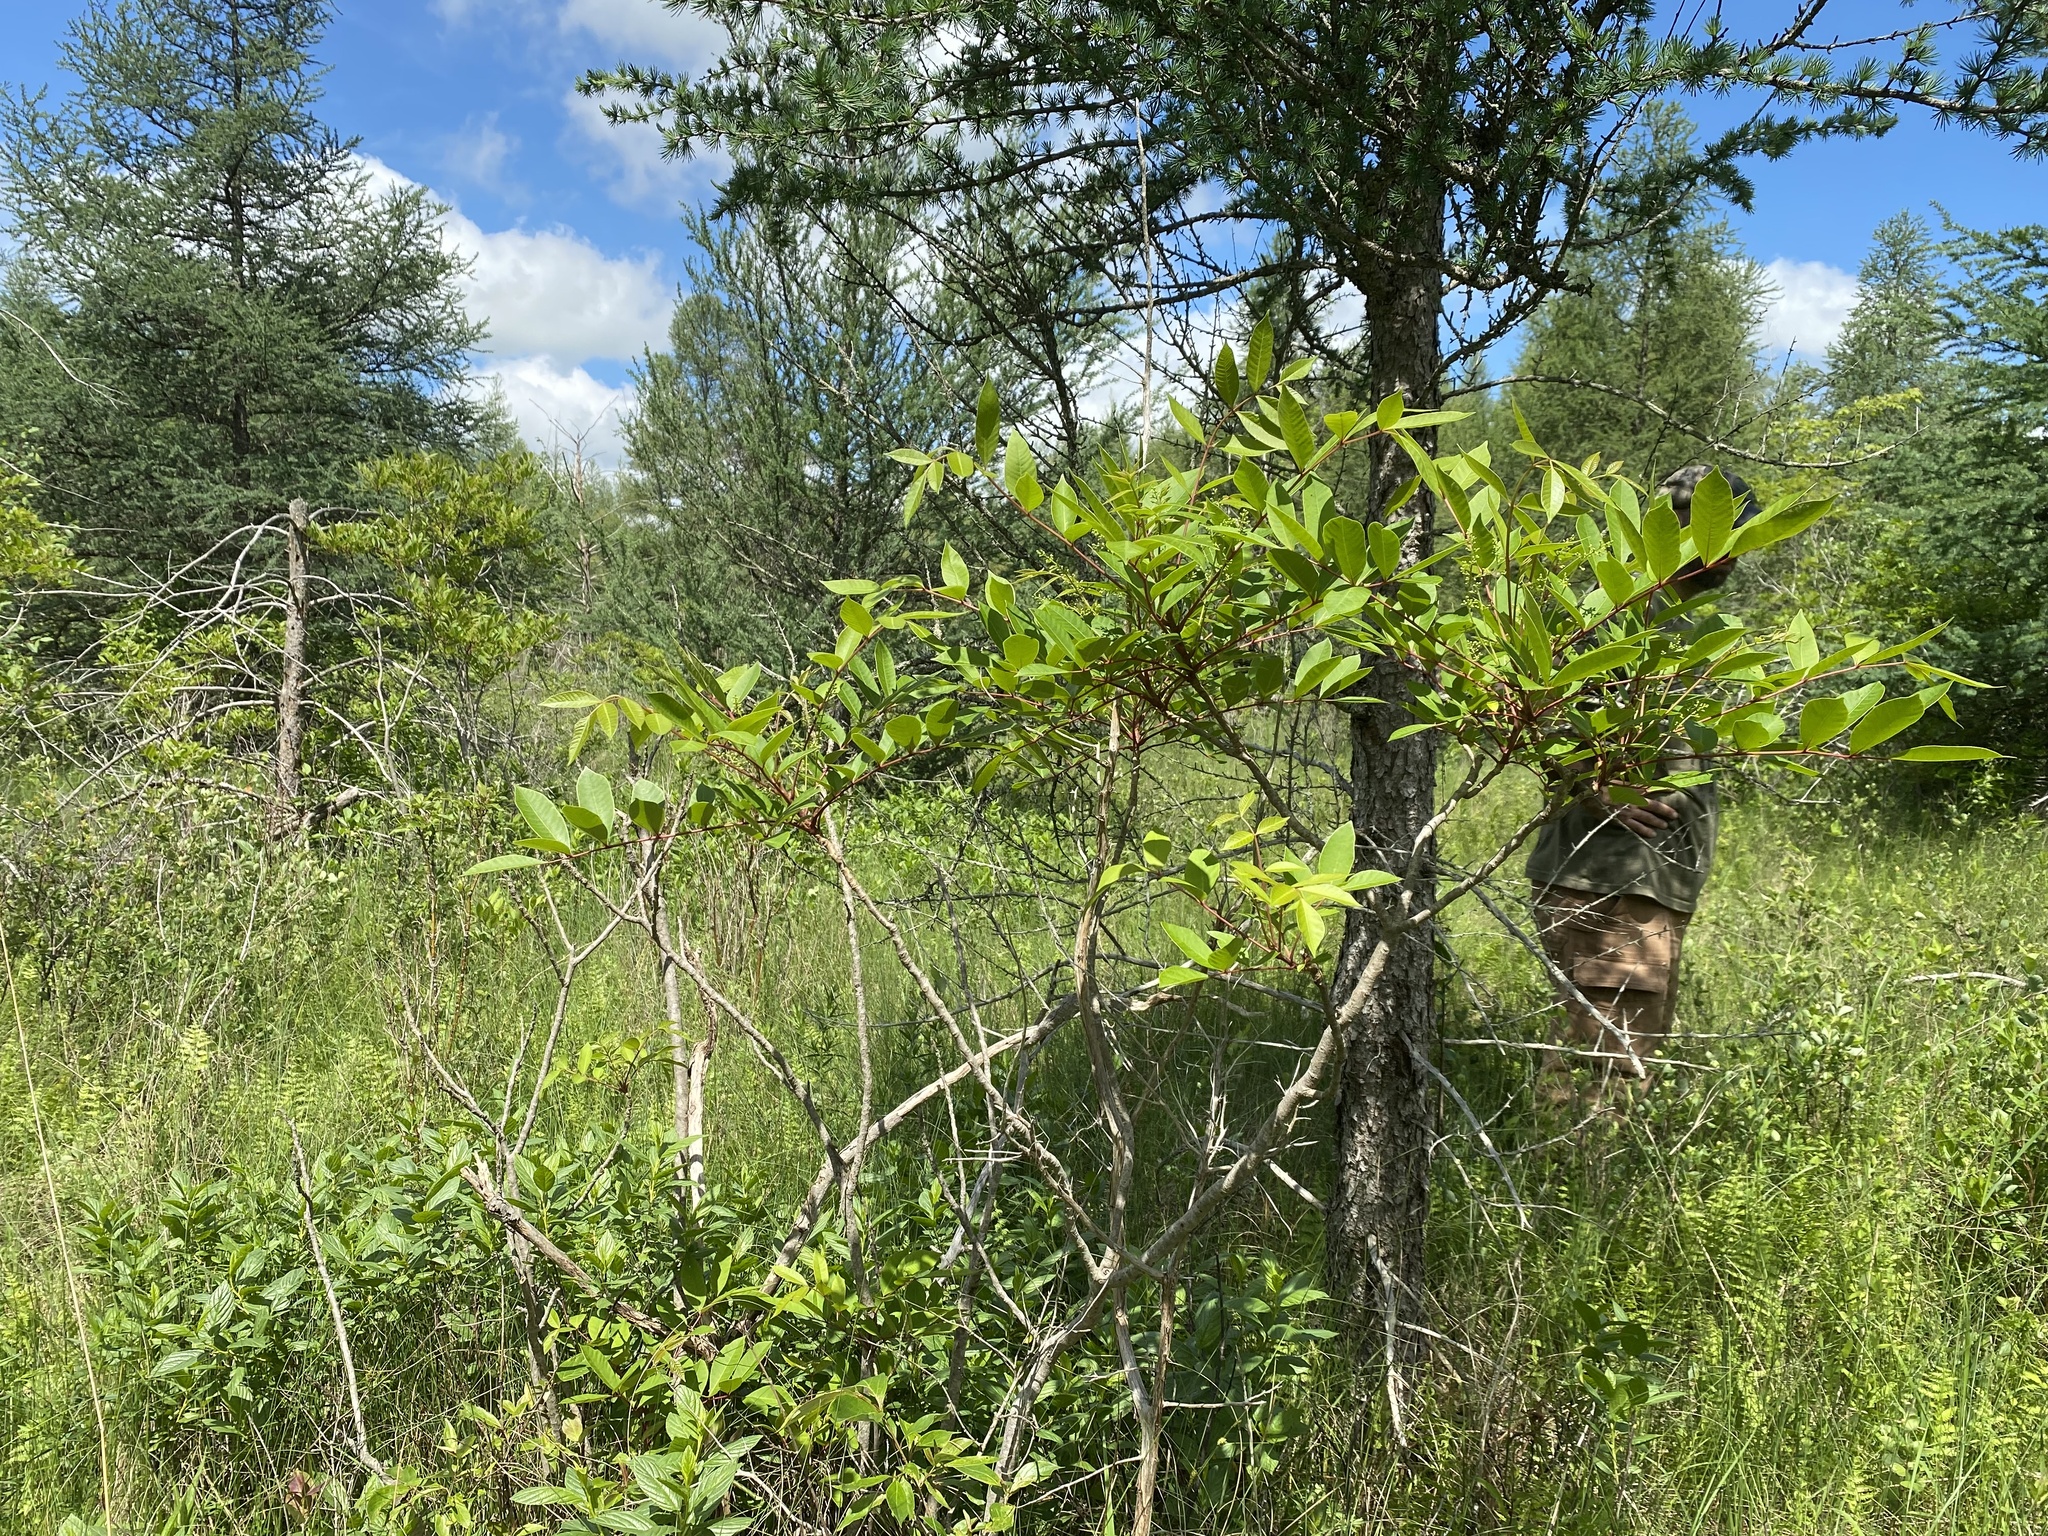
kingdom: Plantae
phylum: Tracheophyta
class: Magnoliopsida
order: Sapindales
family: Anacardiaceae
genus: Toxicodendron
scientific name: Toxicodendron vernix
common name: Poison sumac
